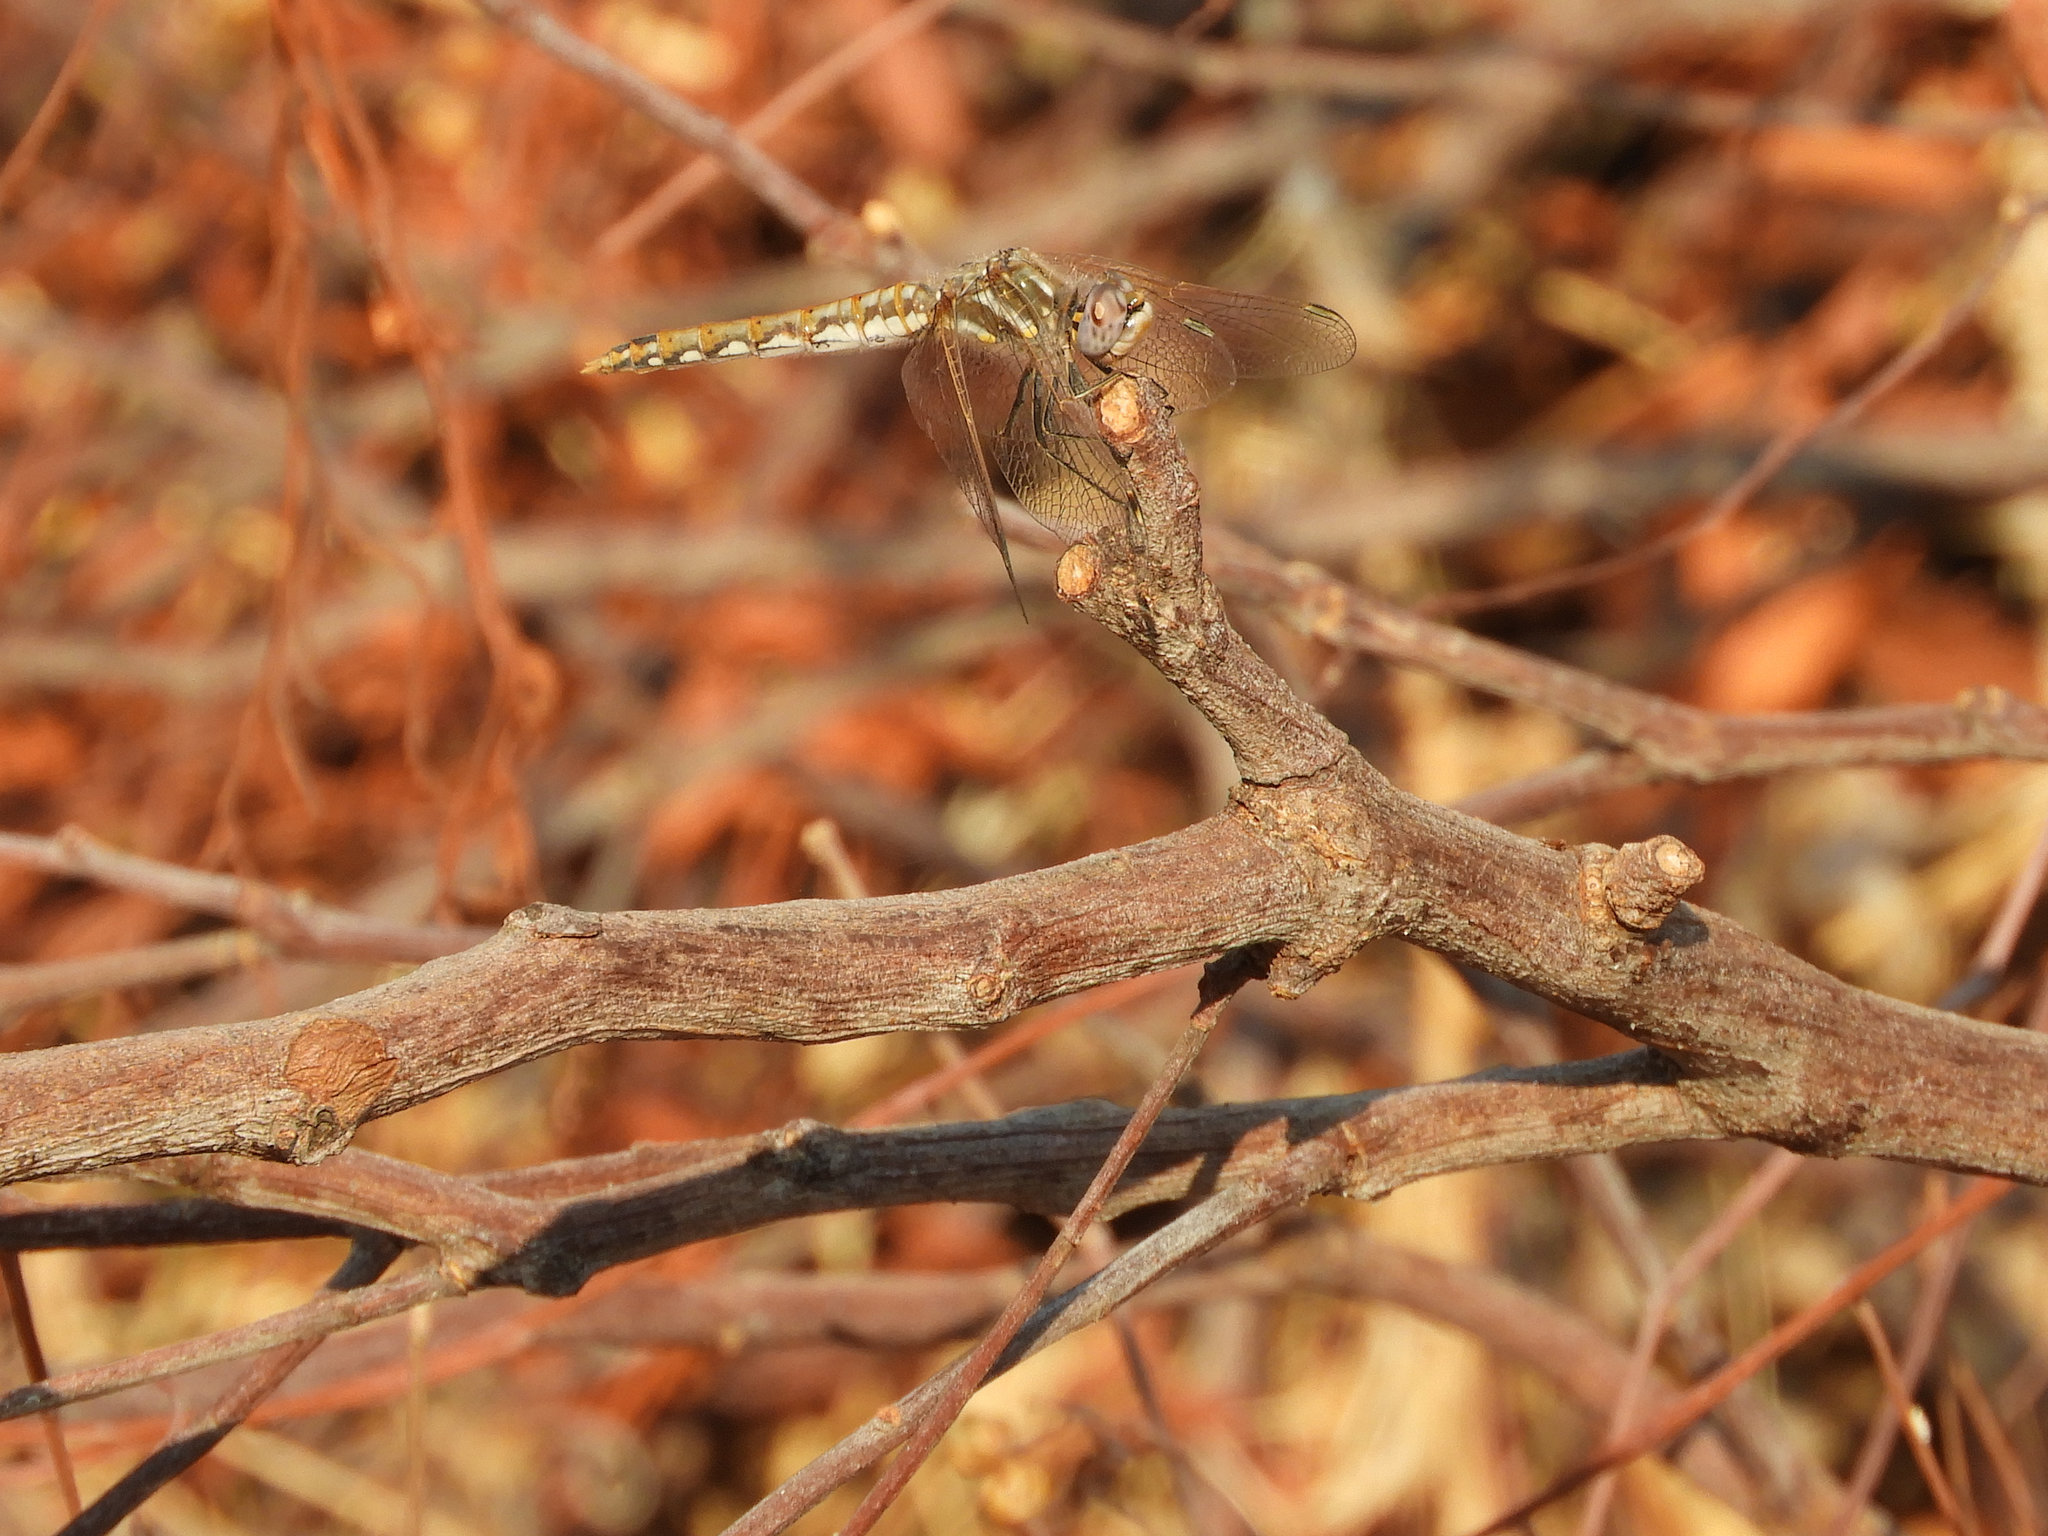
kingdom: Animalia
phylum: Arthropoda
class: Insecta
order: Odonata
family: Libellulidae
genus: Sympetrum
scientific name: Sympetrum corruptum
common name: Variegated meadowhawk
